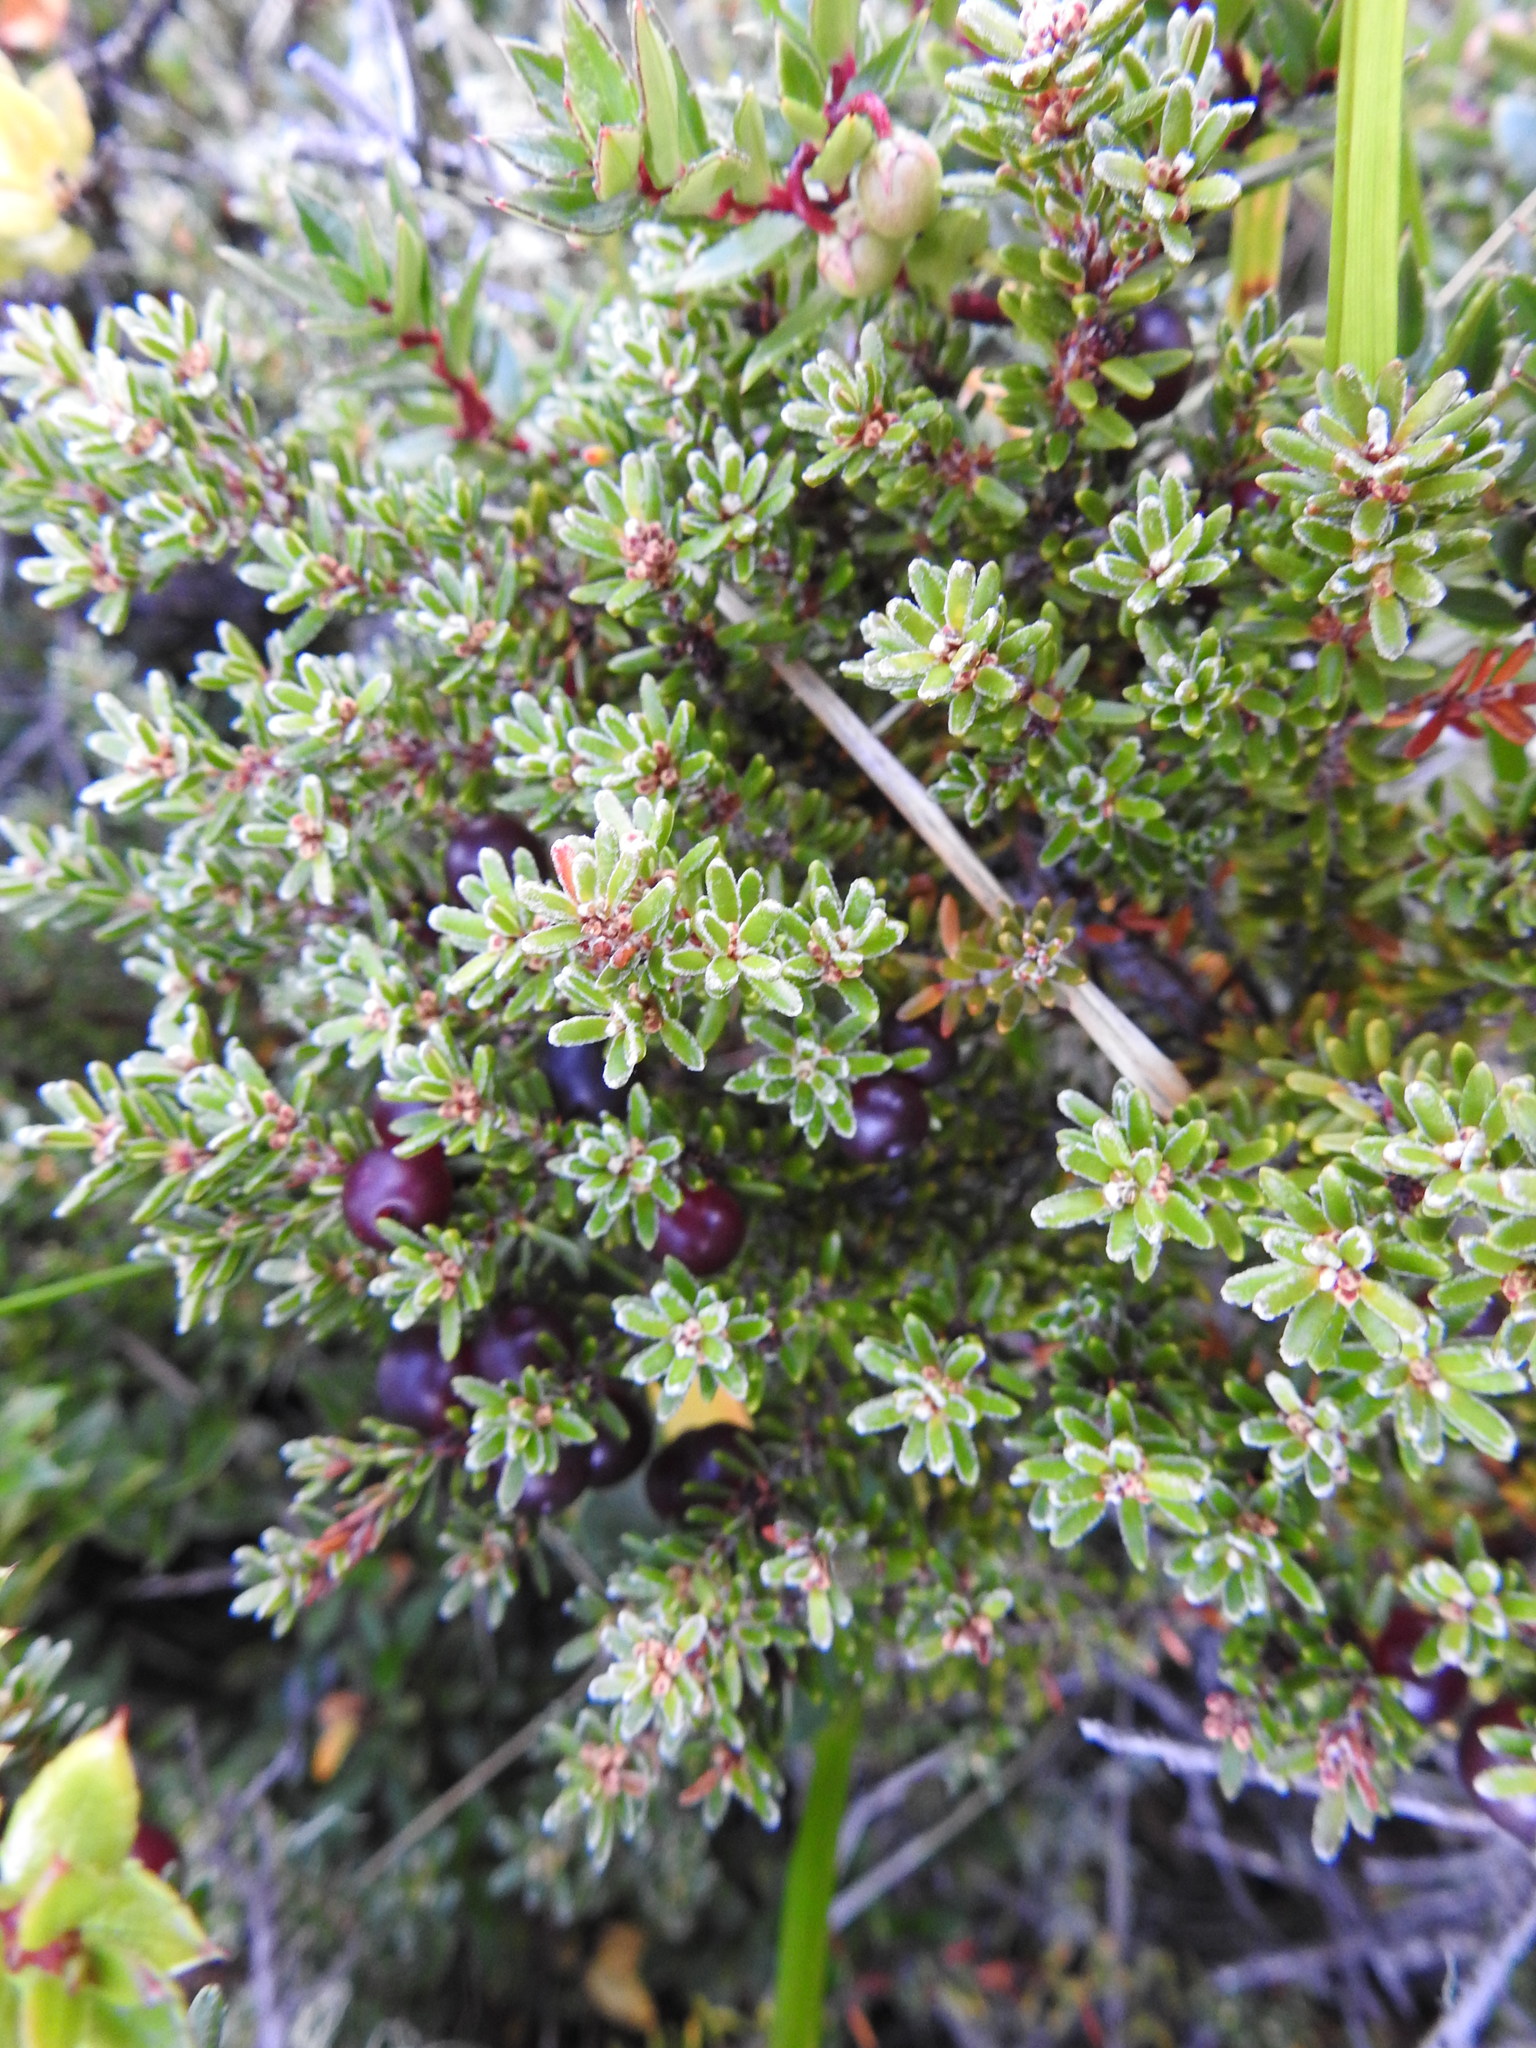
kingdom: Plantae
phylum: Tracheophyta
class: Magnoliopsida
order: Ericales
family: Ericaceae
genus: Empetrum
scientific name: Empetrum rubrum
